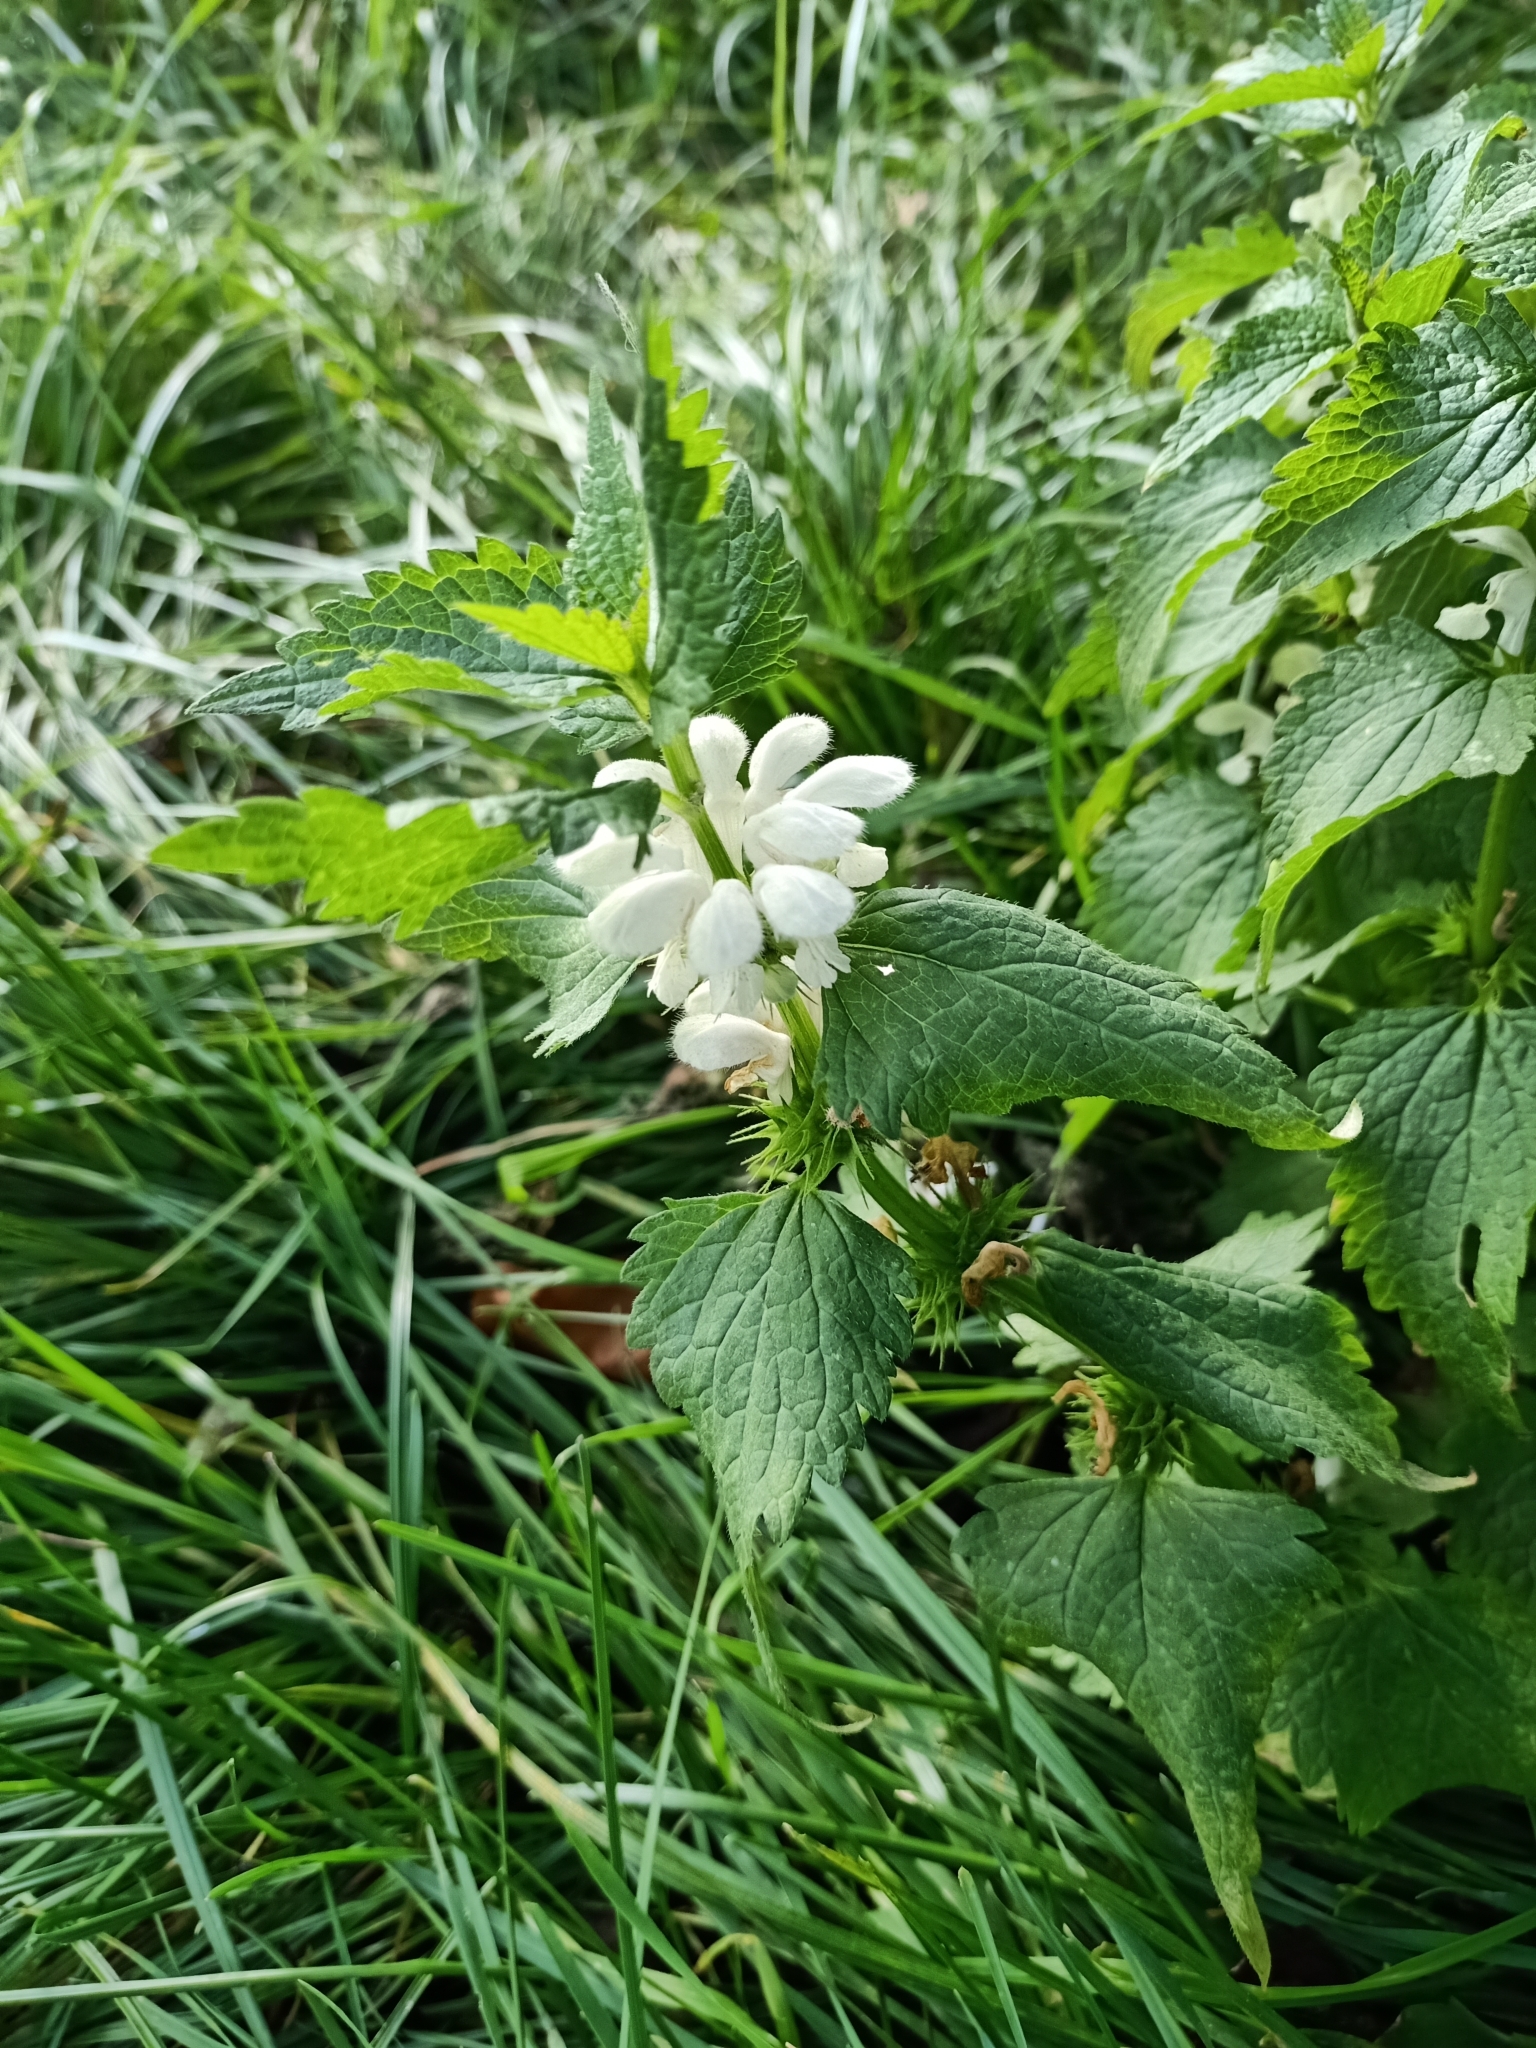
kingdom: Plantae
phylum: Tracheophyta
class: Magnoliopsida
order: Lamiales
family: Lamiaceae
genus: Lamium
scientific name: Lamium album
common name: White dead-nettle
